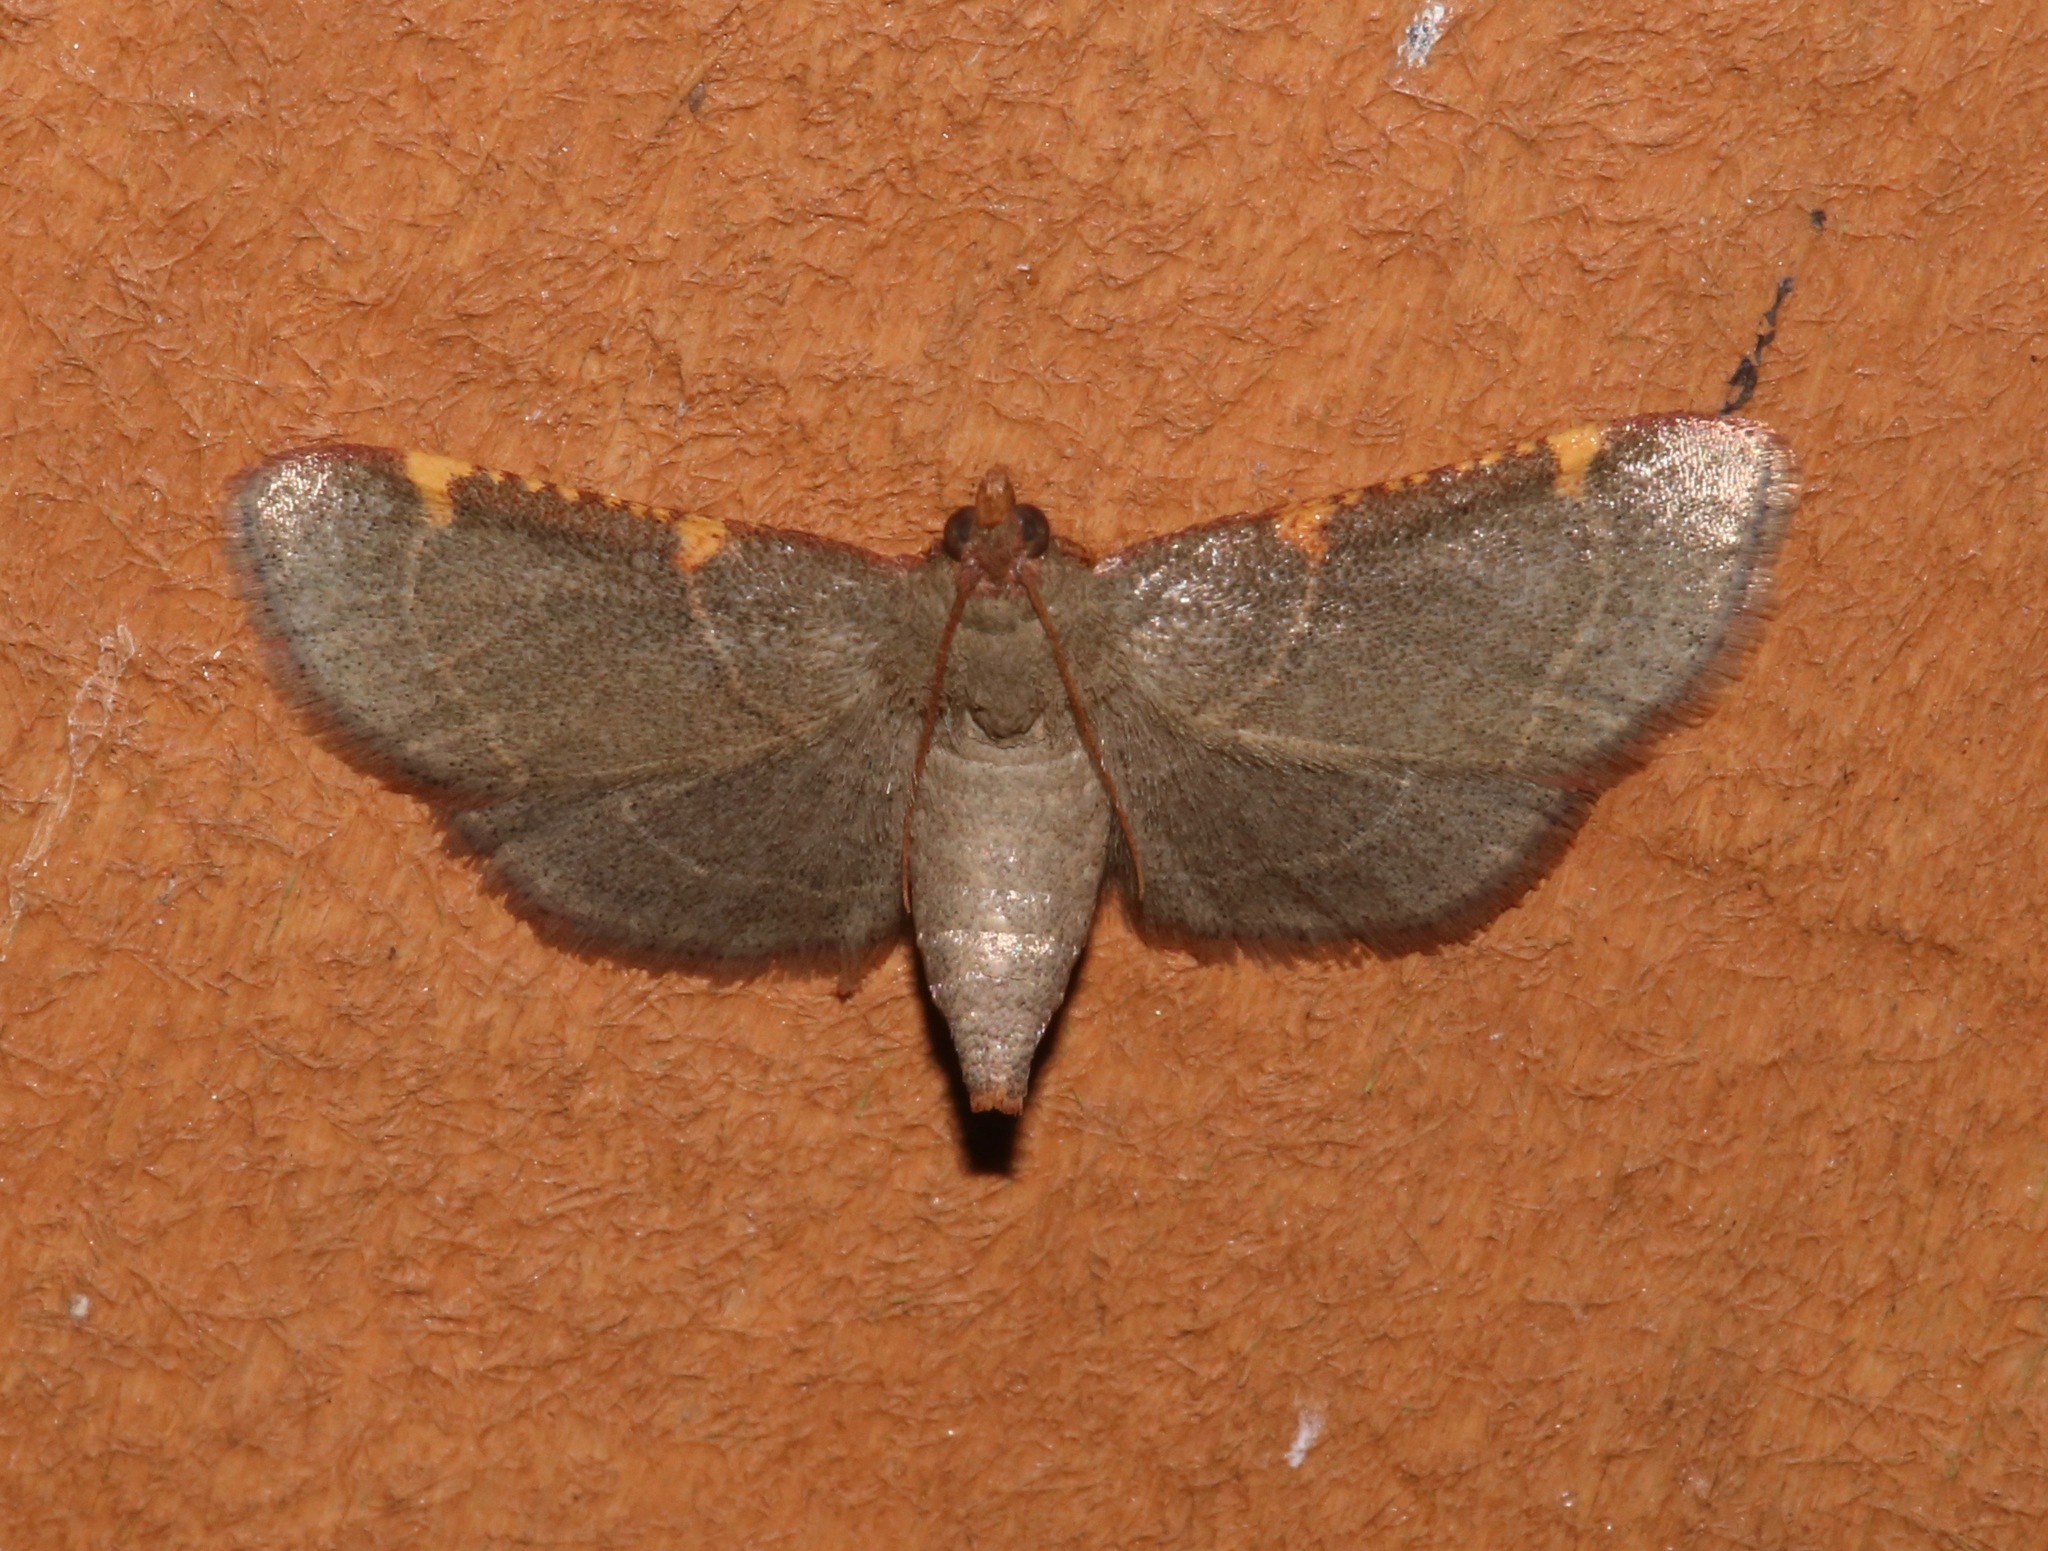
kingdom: Animalia
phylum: Arthropoda
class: Insecta
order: Lepidoptera
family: Pyralidae
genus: Hypsopygia
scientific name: Hypsopygia binodulalis
